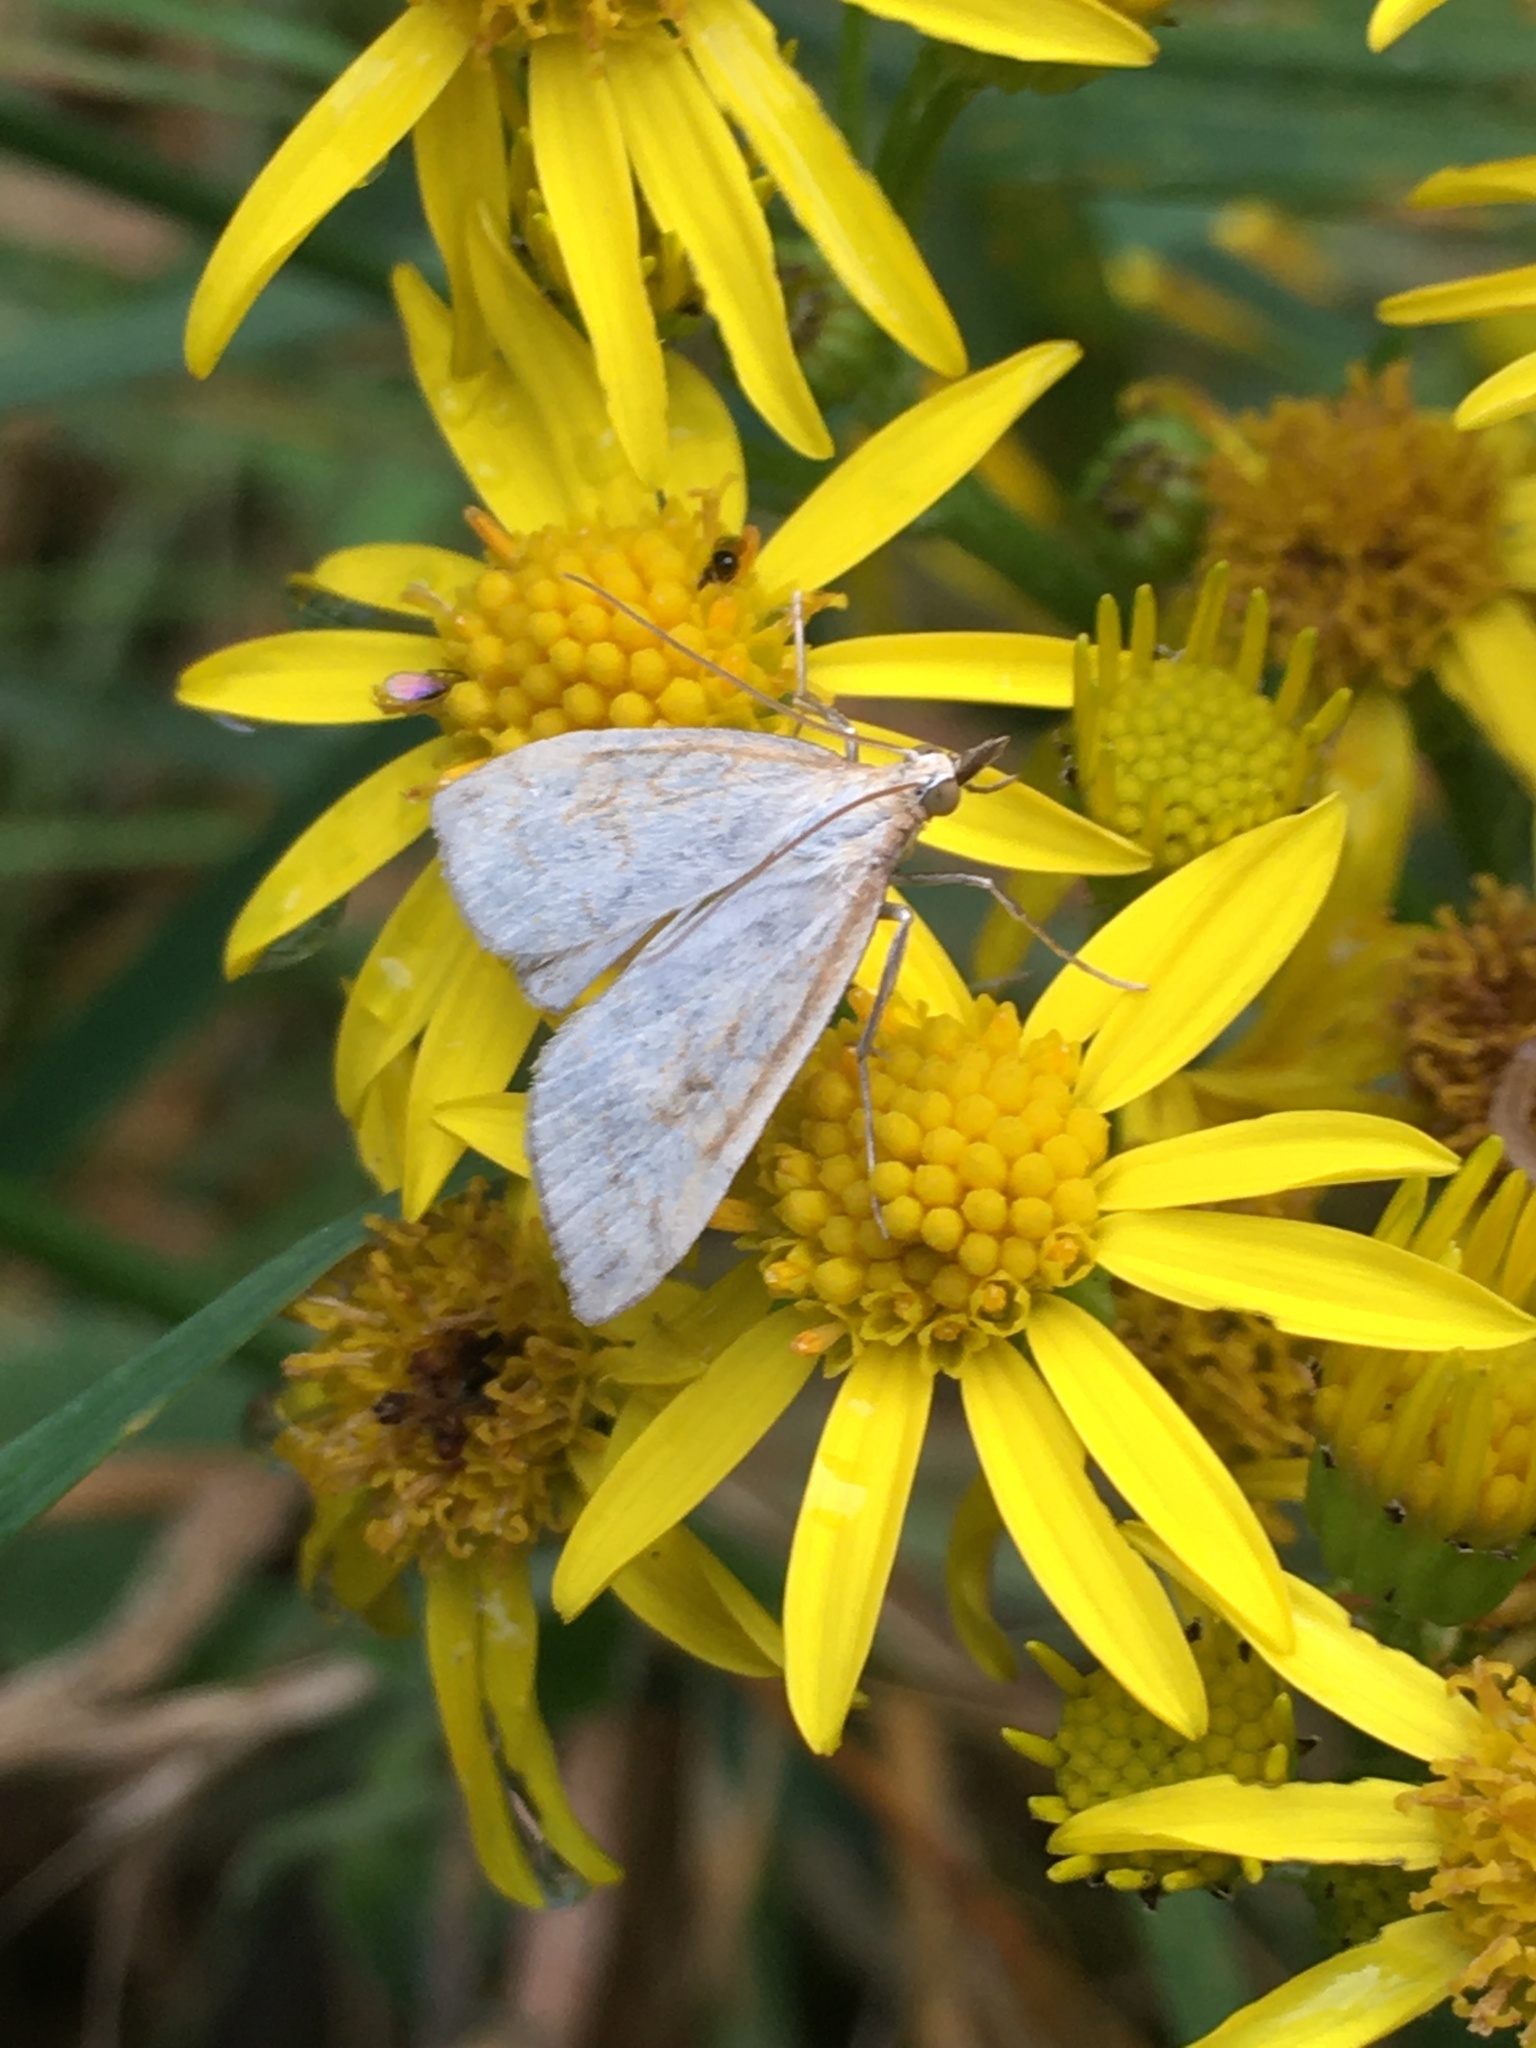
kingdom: Animalia
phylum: Arthropoda
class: Insecta
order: Lepidoptera
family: Crambidae
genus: Udea
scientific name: Udea lutealis
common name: Pale straw pearl
